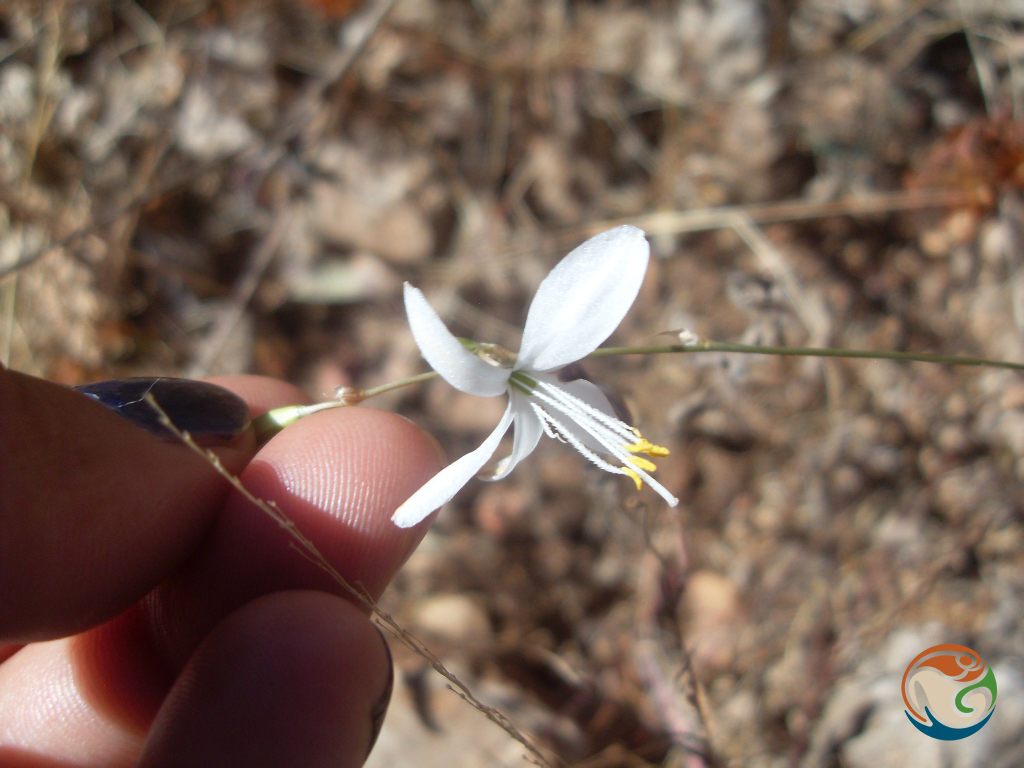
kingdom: Plantae
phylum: Tracheophyta
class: Liliopsida
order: Asparagales
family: Asparagaceae
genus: Echeandia
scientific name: Echeandia tenuis
